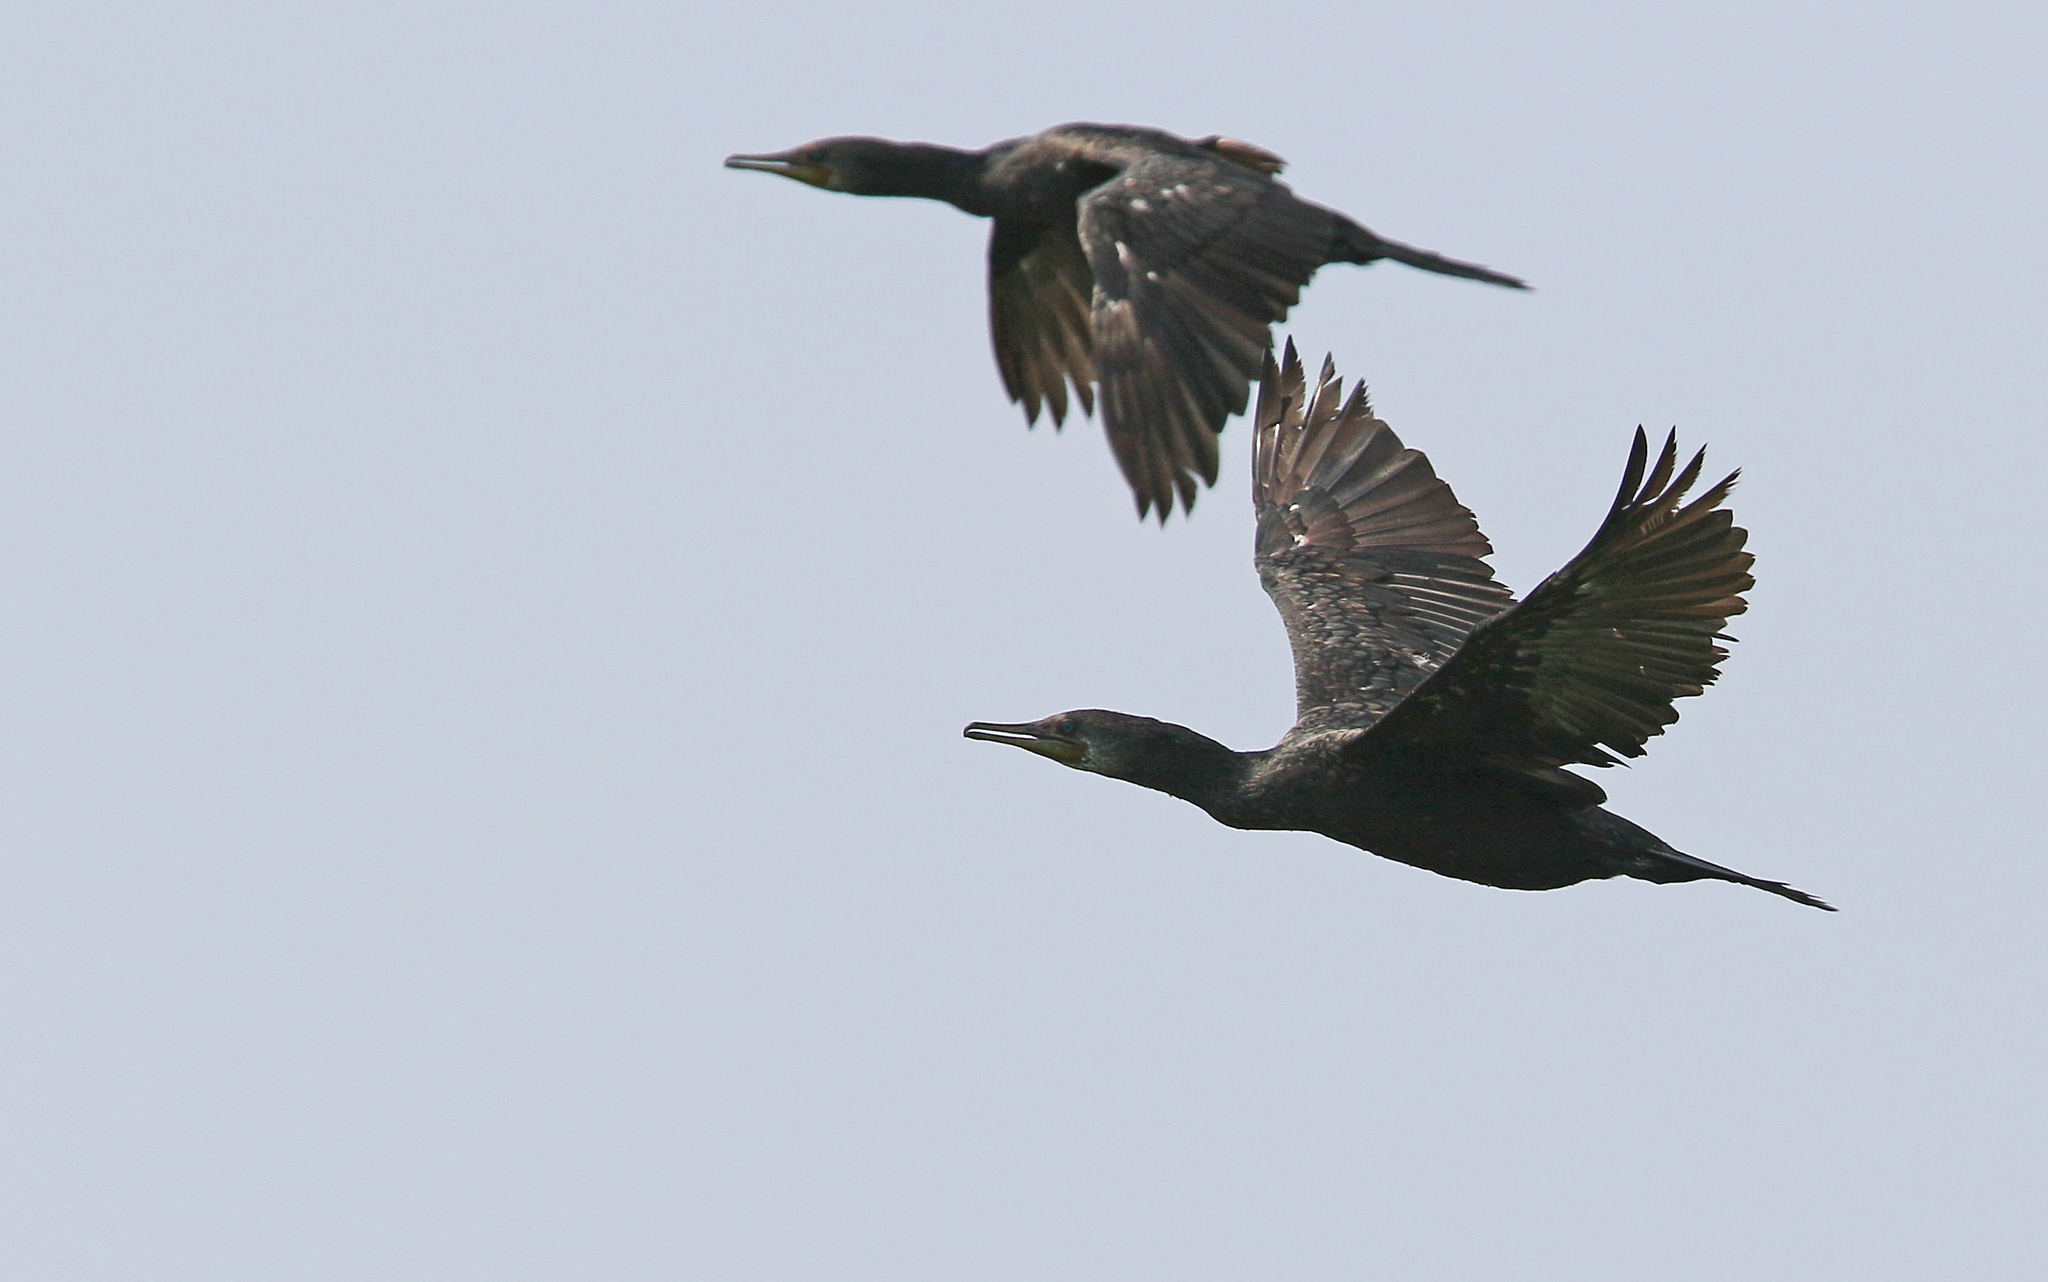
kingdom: Animalia
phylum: Chordata
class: Aves
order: Suliformes
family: Phalacrocoracidae
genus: Phalacrocorax
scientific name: Phalacrocorax fuscicollis
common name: Indian cormorant
